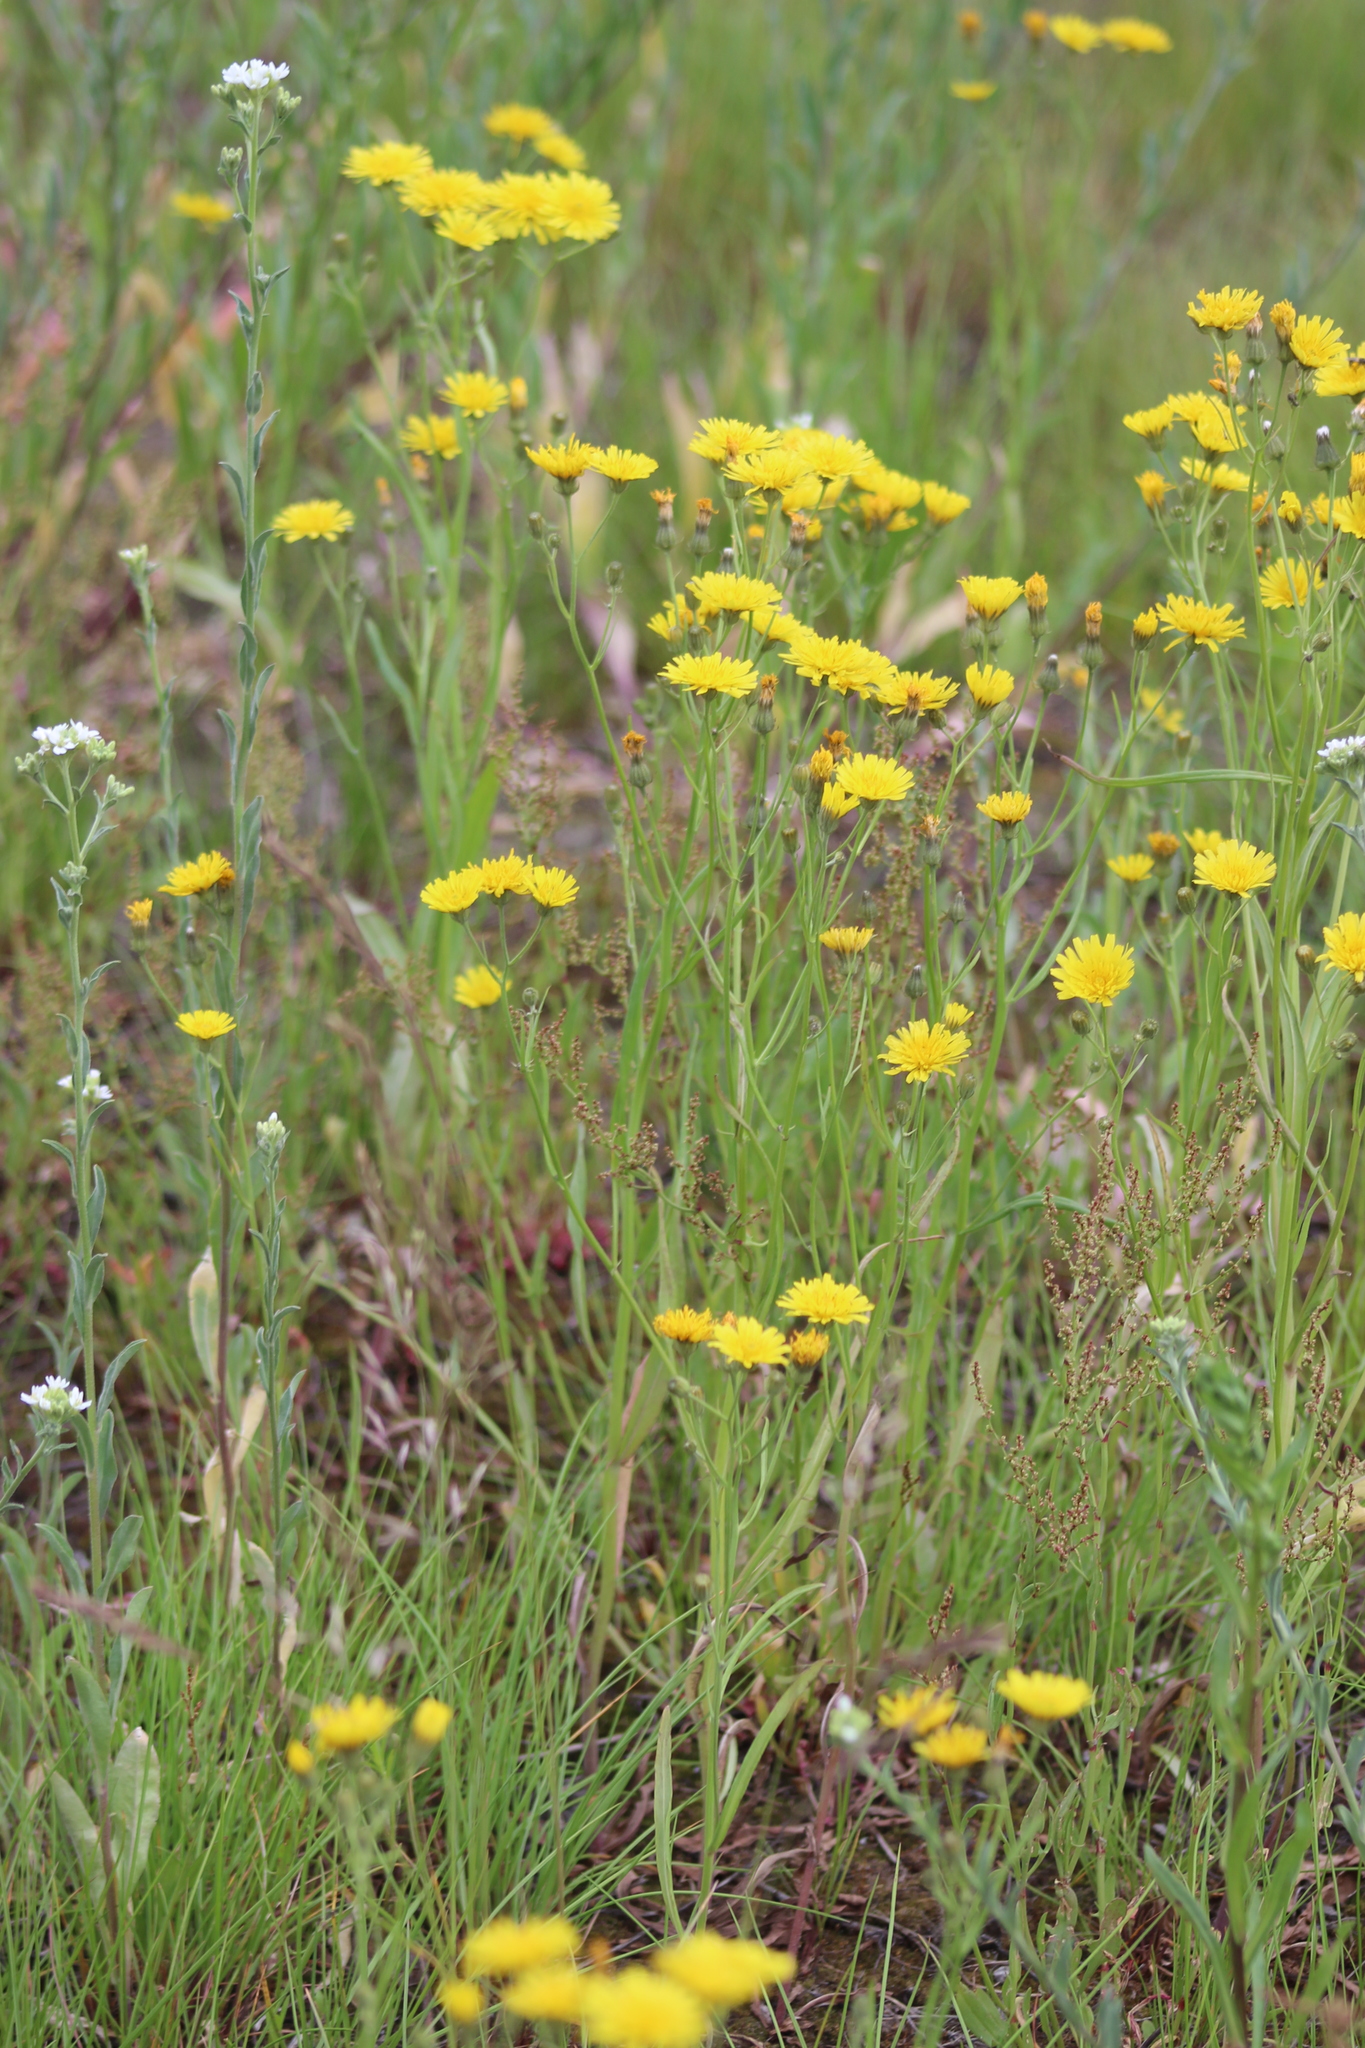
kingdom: Plantae
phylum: Tracheophyta
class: Magnoliopsida
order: Asterales
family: Asteraceae
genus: Crepis
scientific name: Crepis tectorum
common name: Narrow-leaved hawk's-beard
